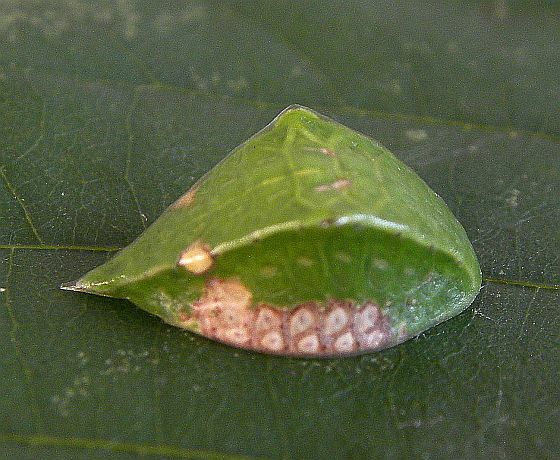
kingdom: Animalia
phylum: Arthropoda
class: Insecta
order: Lepidoptera
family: Limacodidae
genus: Prolimacodes
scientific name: Prolimacodes badia
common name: Skiff moth
